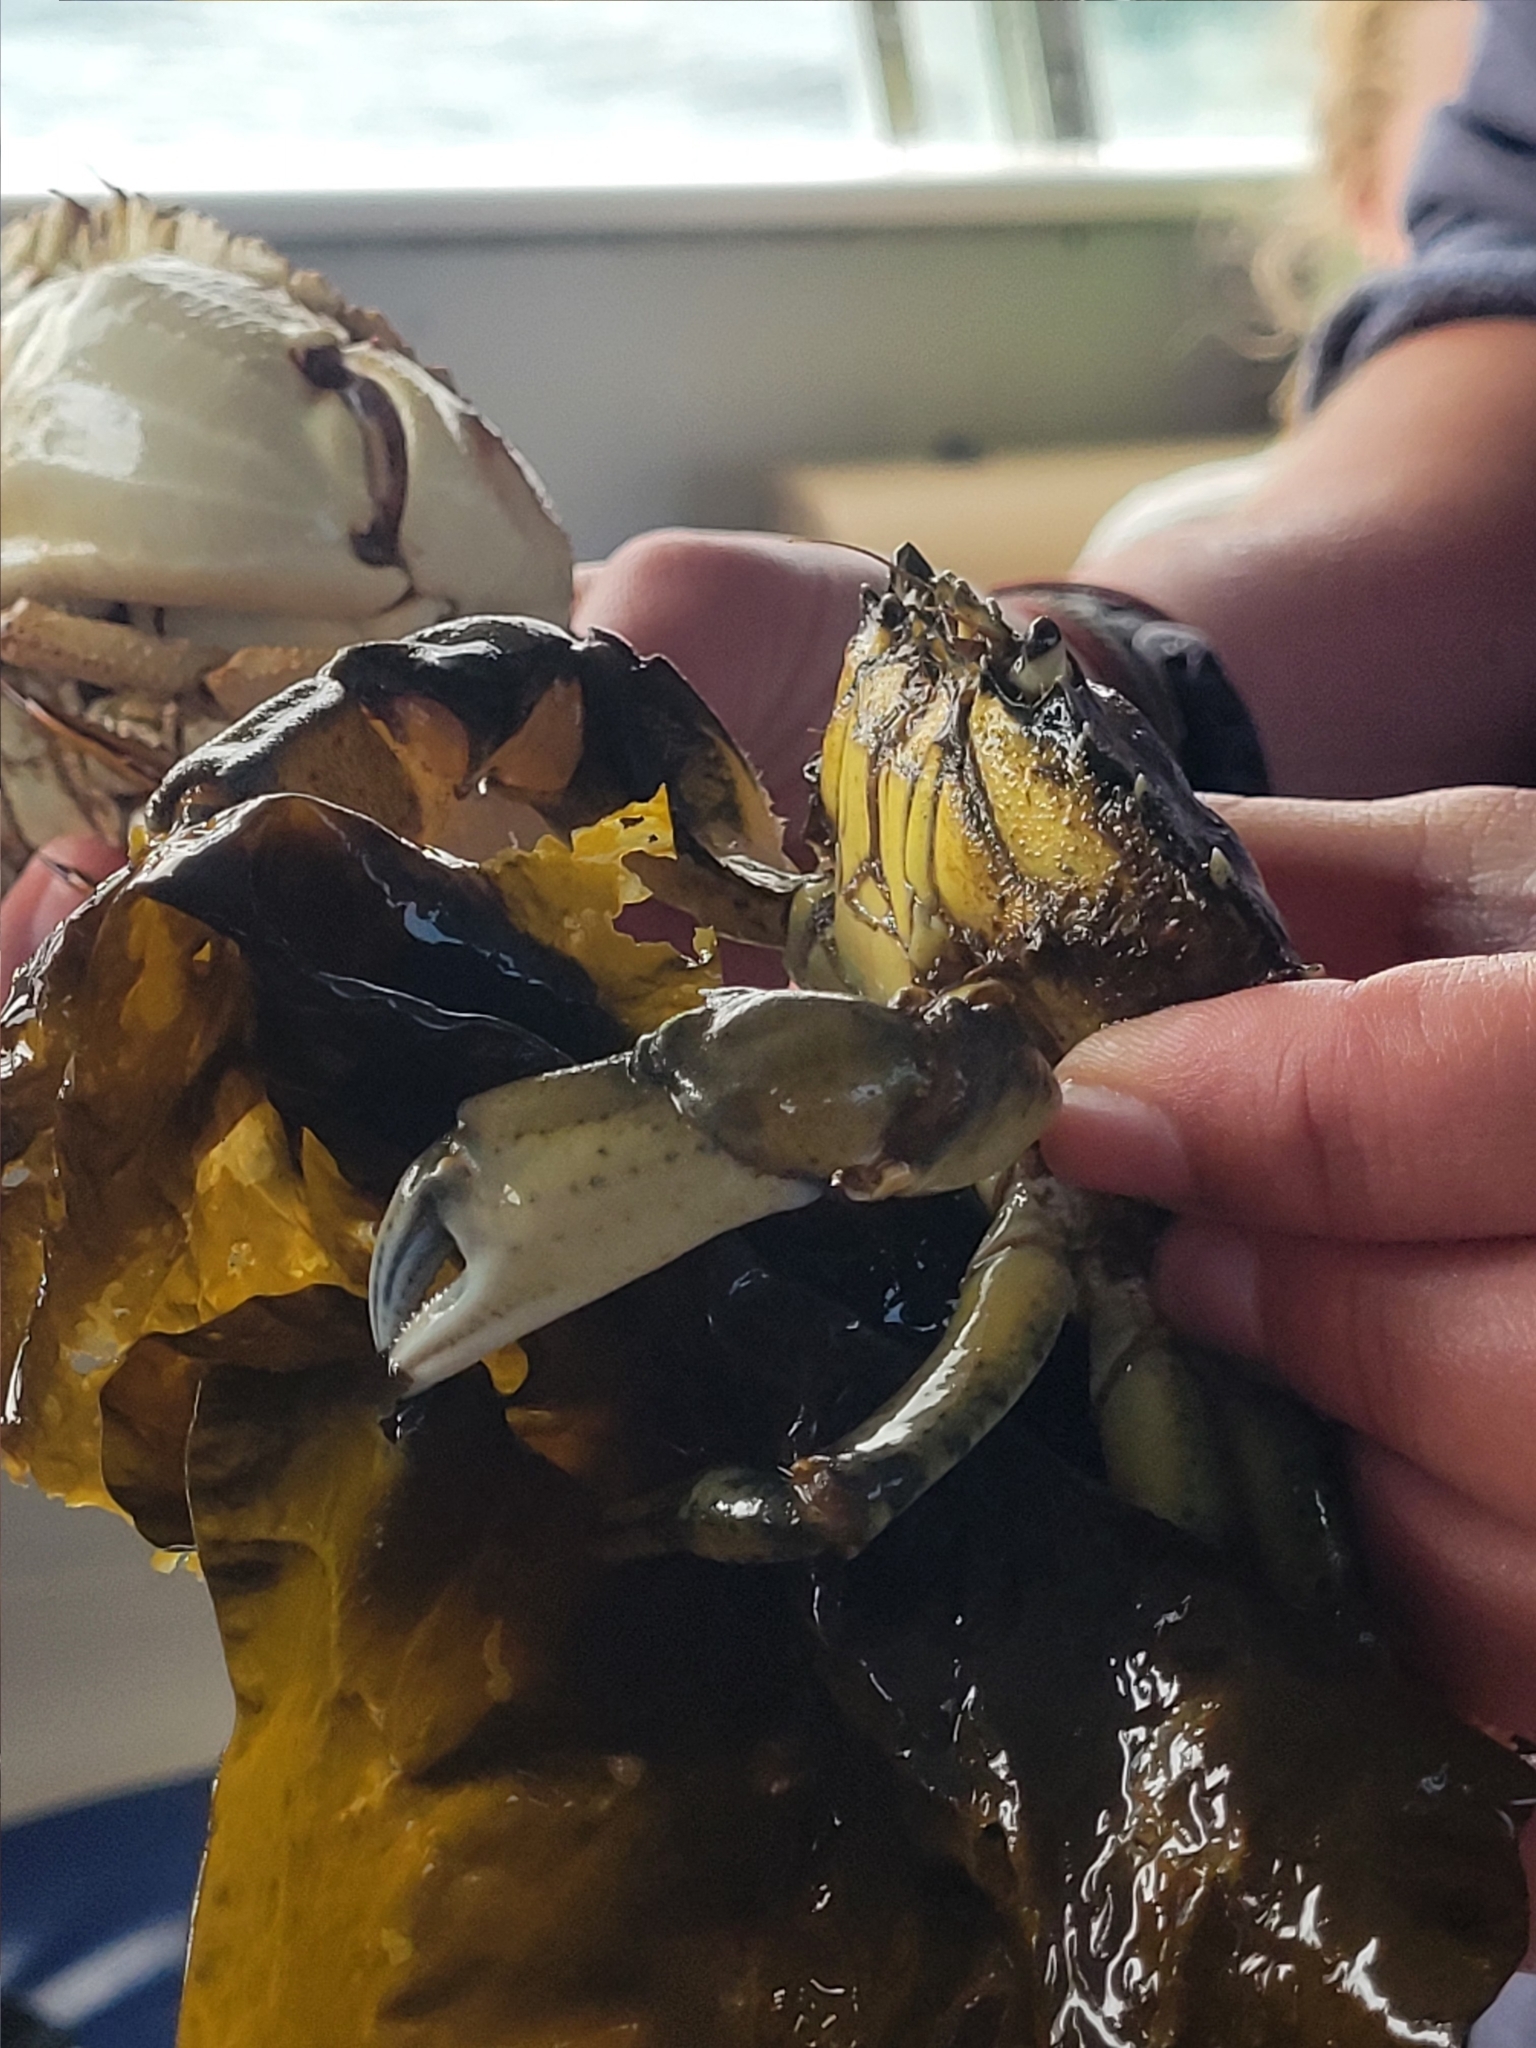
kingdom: Animalia
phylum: Arthropoda
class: Malacostraca
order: Decapoda
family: Carcinidae
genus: Carcinus
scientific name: Carcinus maenas
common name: European green crab
